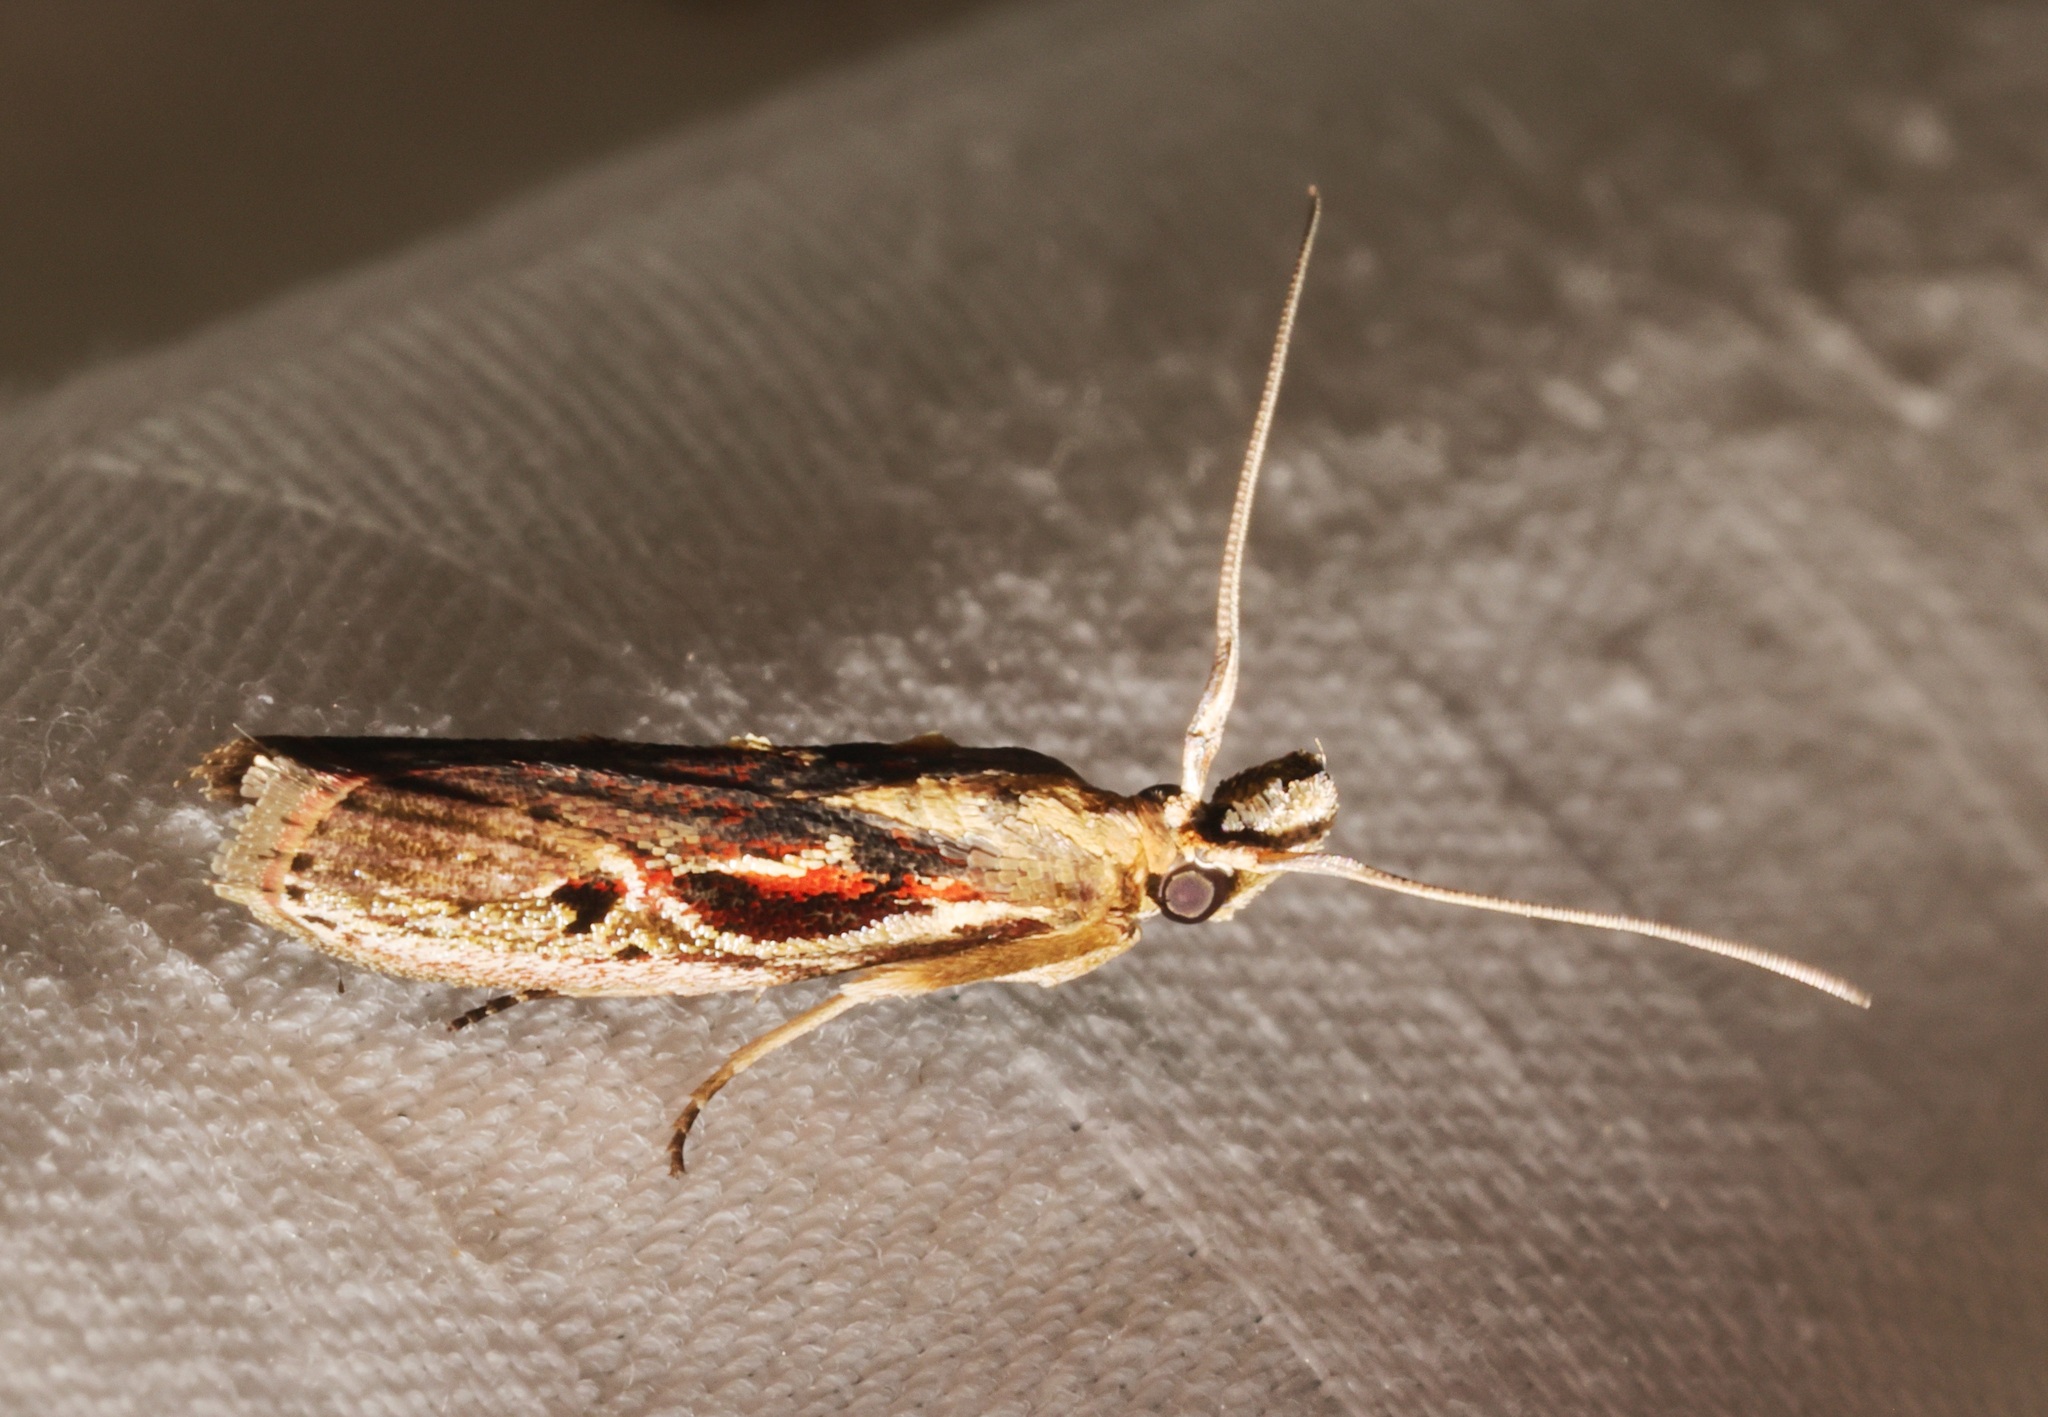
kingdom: Animalia
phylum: Arthropoda
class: Insecta
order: Lepidoptera
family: Pyralidae
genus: Pseudodavara
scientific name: Pseudodavara haemaphoralis
